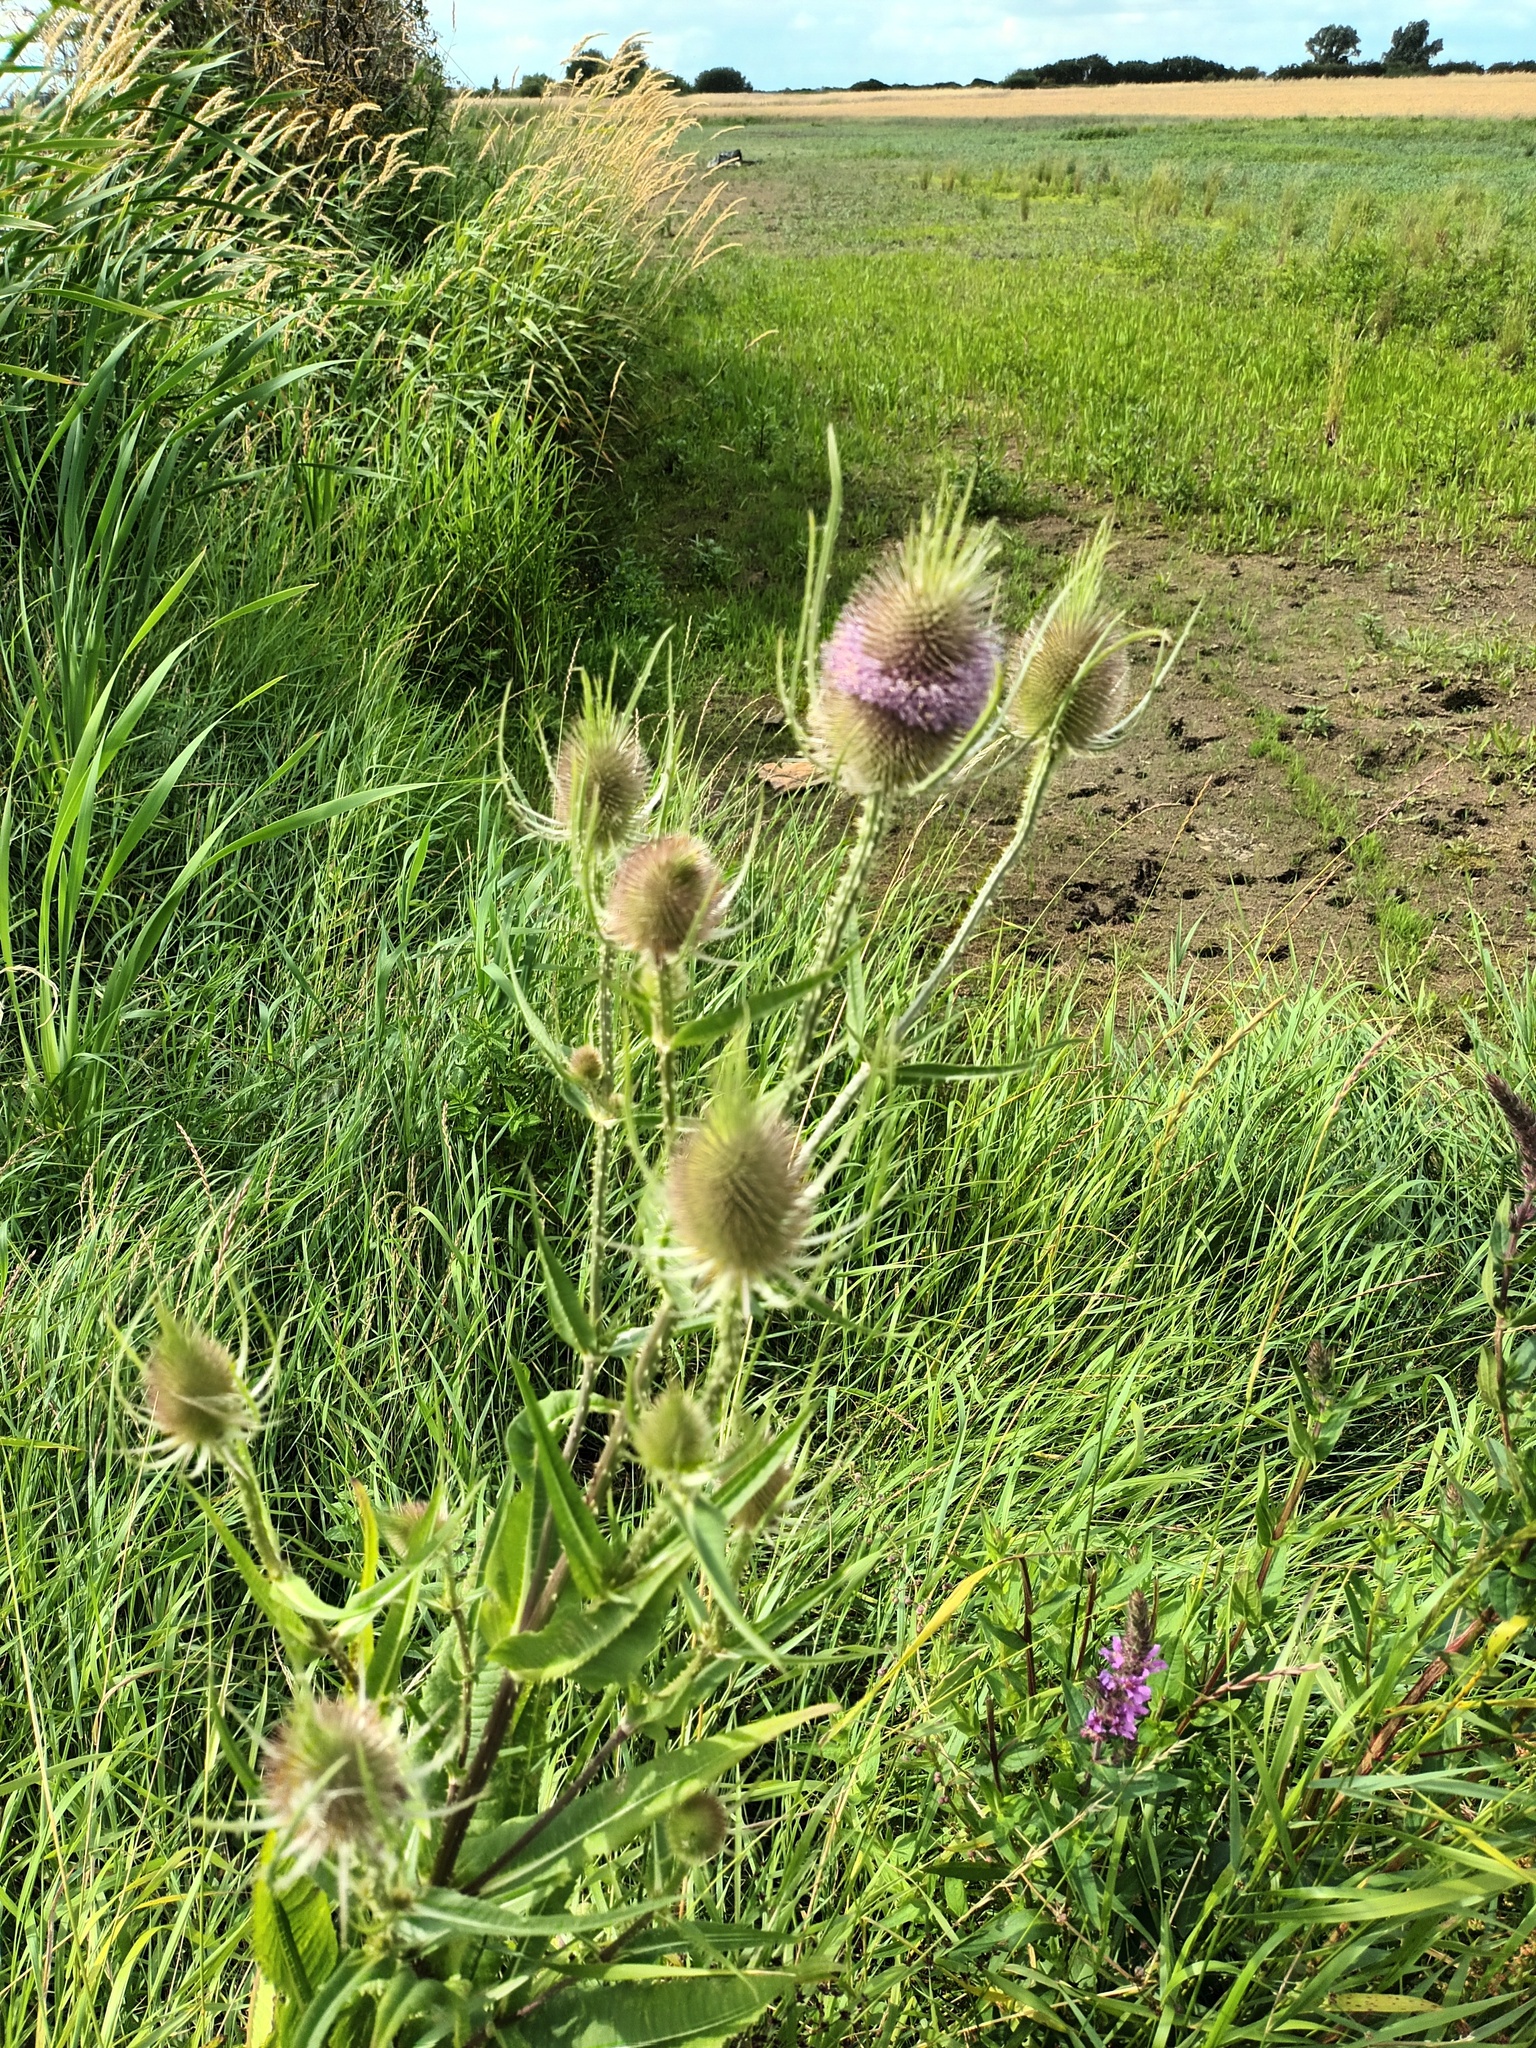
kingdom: Plantae
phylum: Tracheophyta
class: Magnoliopsida
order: Dipsacales
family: Caprifoliaceae
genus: Dipsacus
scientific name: Dipsacus fullonum
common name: Teasel
